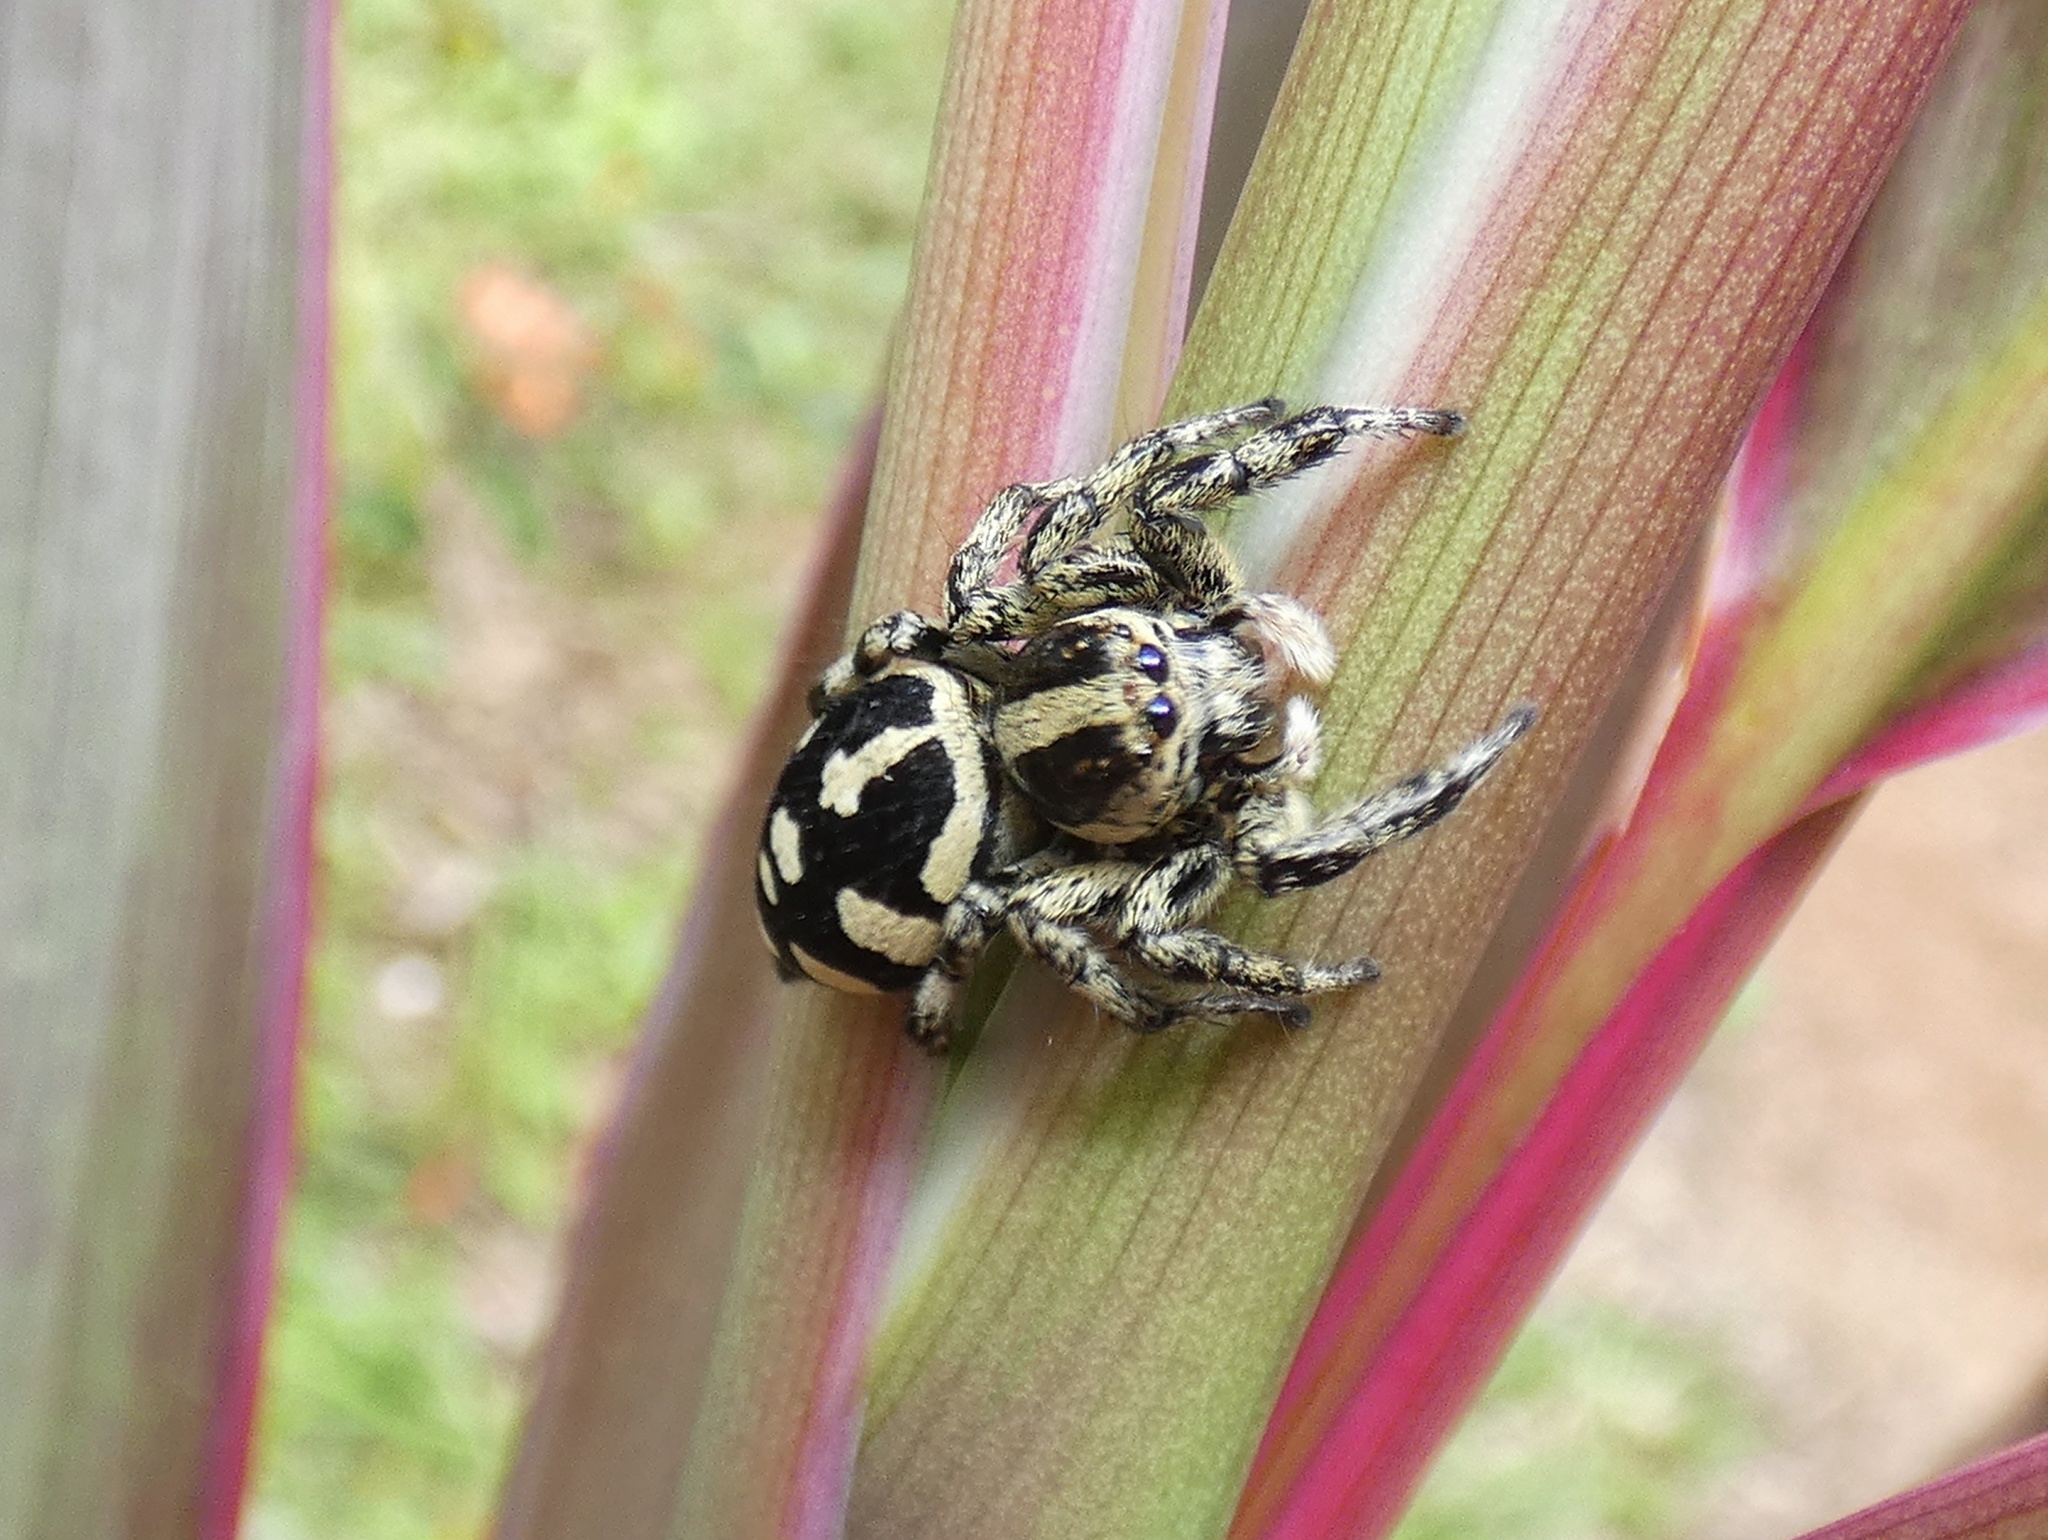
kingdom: Animalia
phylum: Arthropoda
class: Arachnida
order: Araneae
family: Salticidae
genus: Phiale
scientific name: Phiale guttata
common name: Jumping spiders
